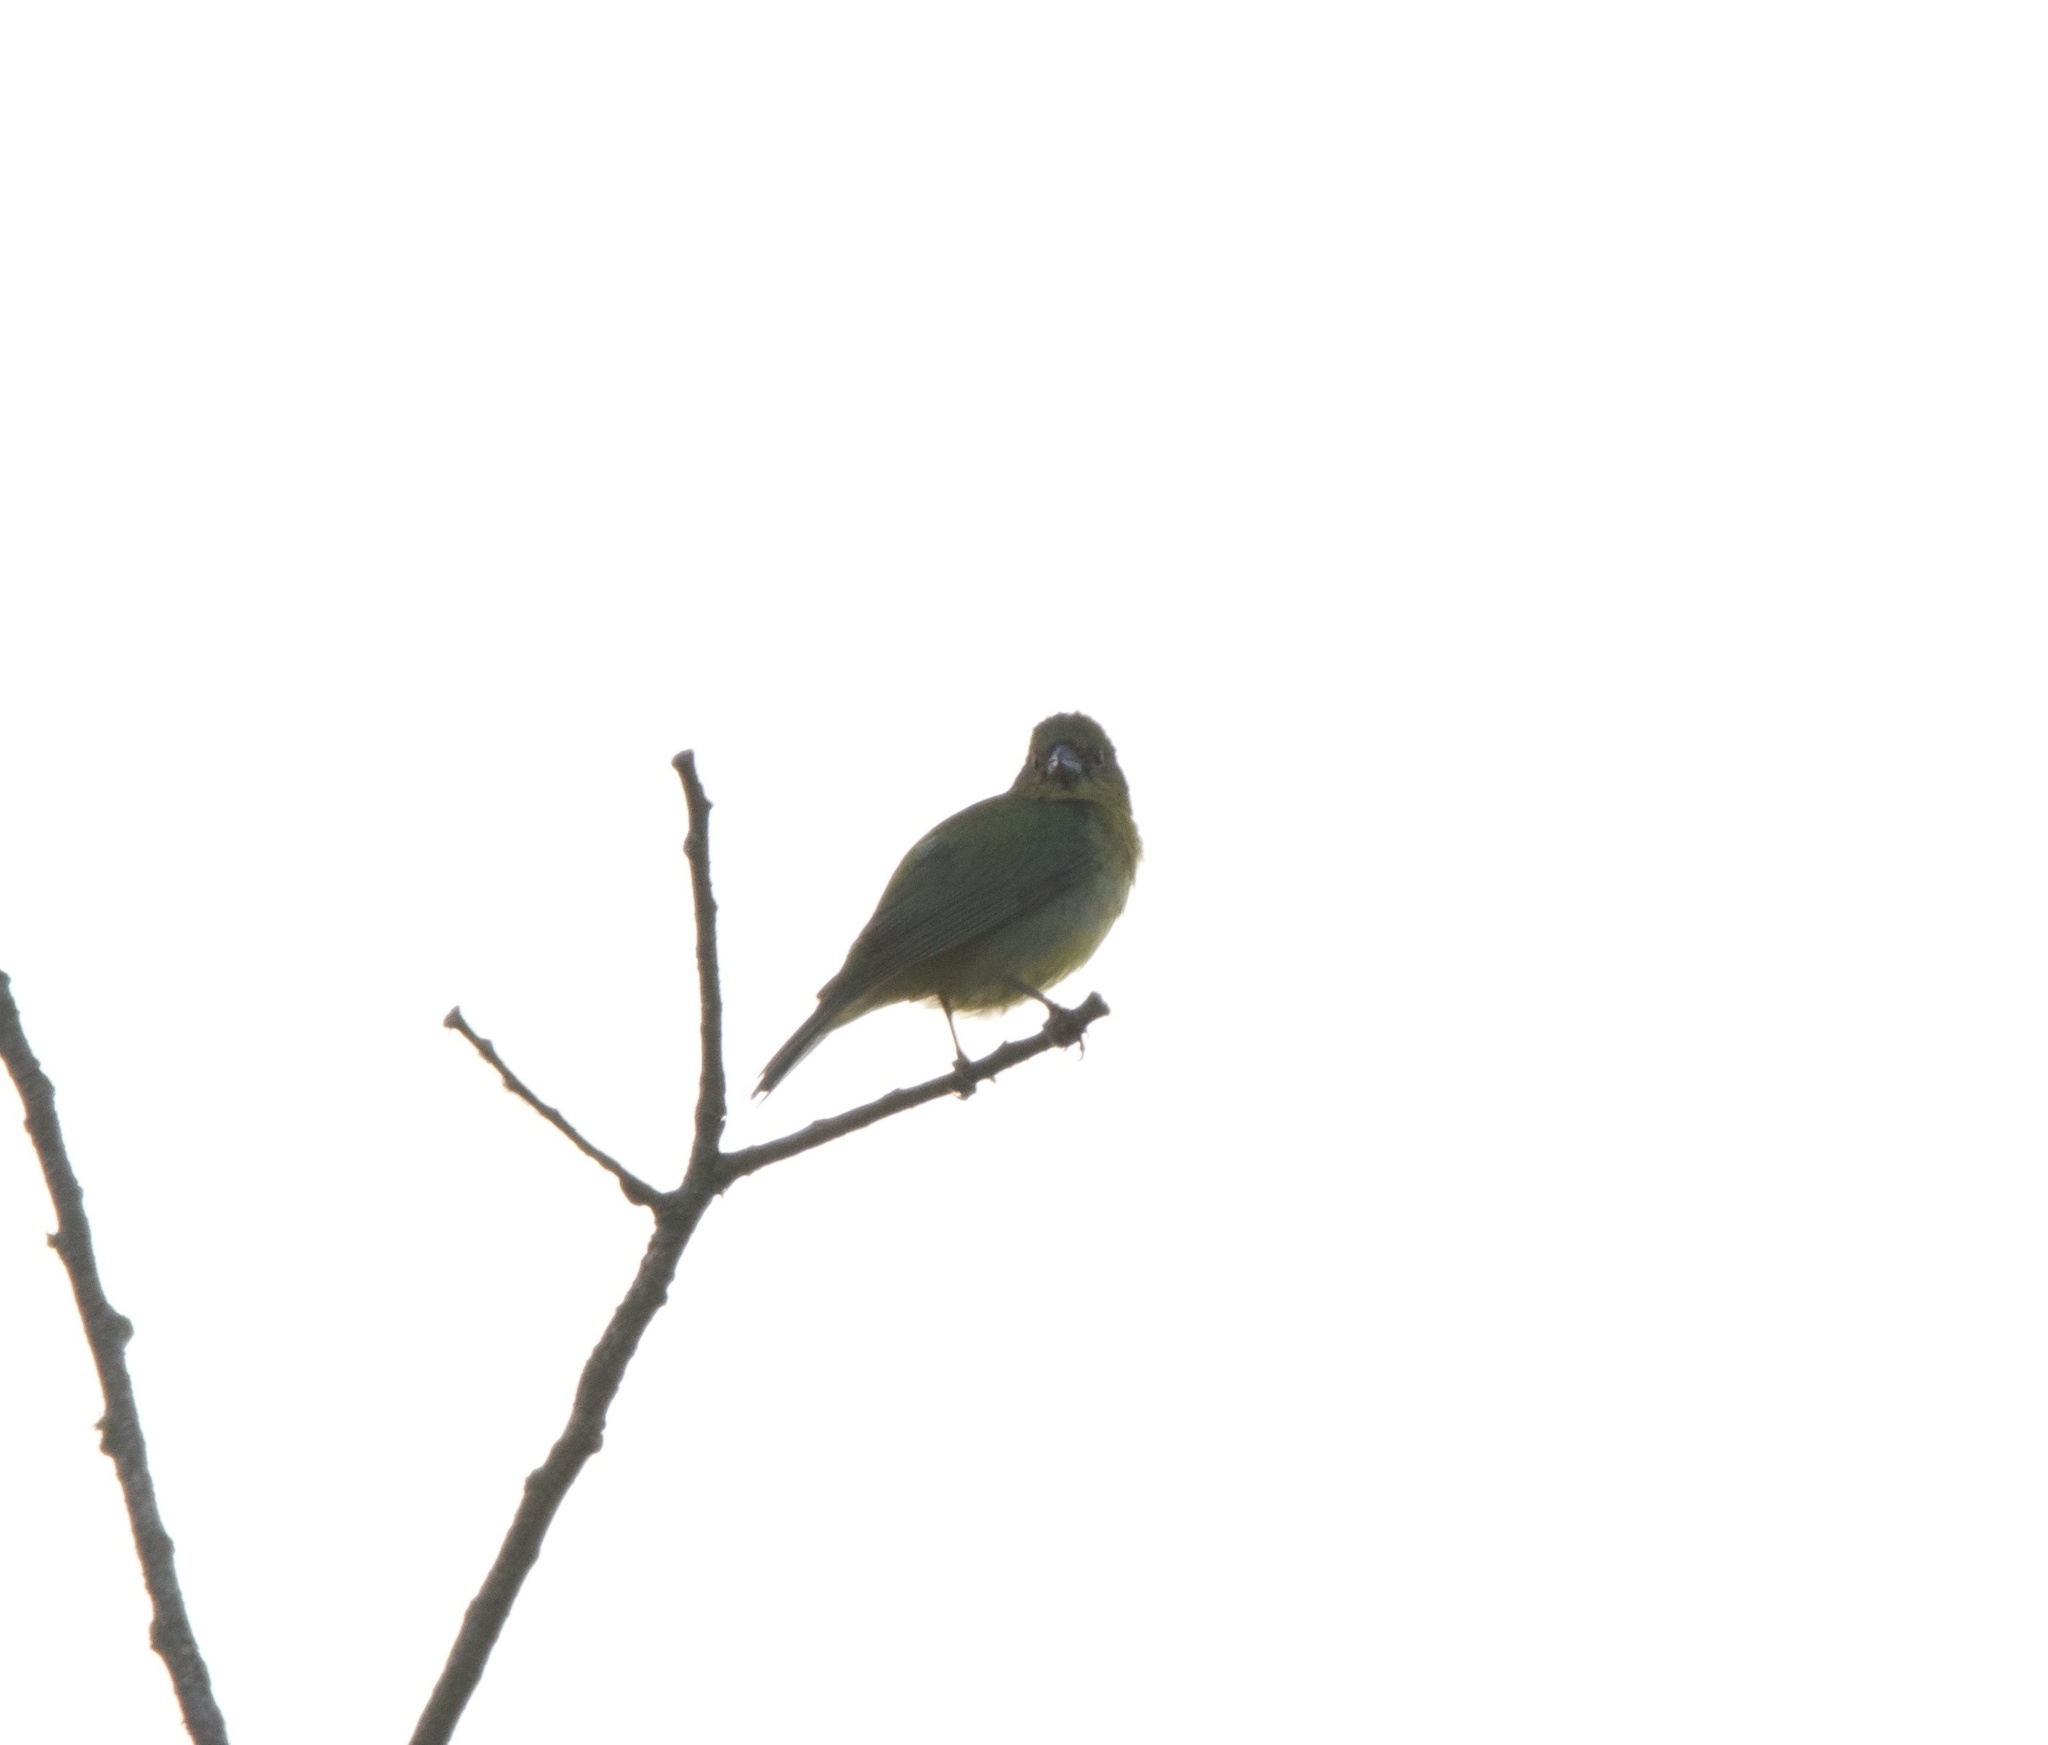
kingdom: Animalia
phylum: Chordata
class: Aves
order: Passeriformes
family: Cardinalidae
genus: Passerina
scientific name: Passerina ciris
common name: Painted bunting
